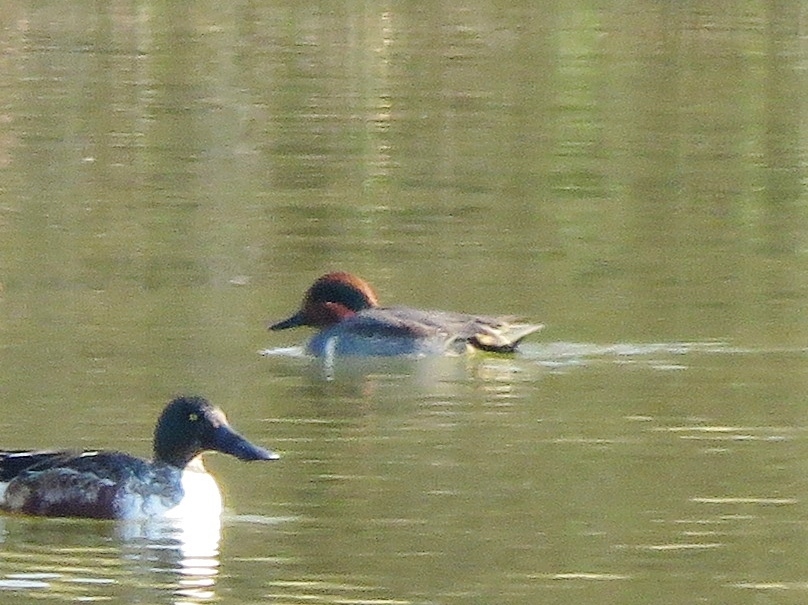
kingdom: Animalia
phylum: Chordata
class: Aves
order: Anseriformes
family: Anatidae
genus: Anas
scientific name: Anas crecca
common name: Eurasian teal
